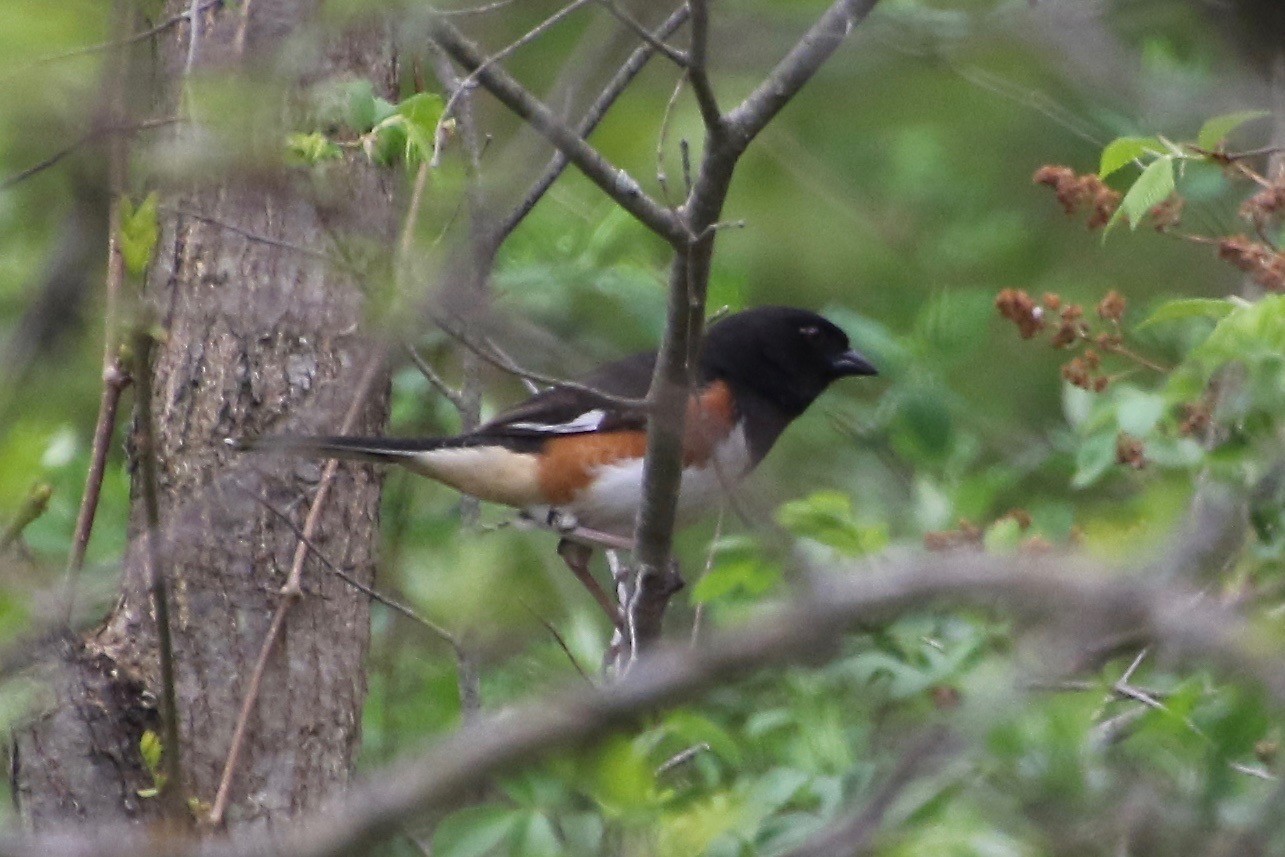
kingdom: Animalia
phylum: Chordata
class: Aves
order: Passeriformes
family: Passerellidae
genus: Pipilo
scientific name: Pipilo erythrophthalmus
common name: Eastern towhee
